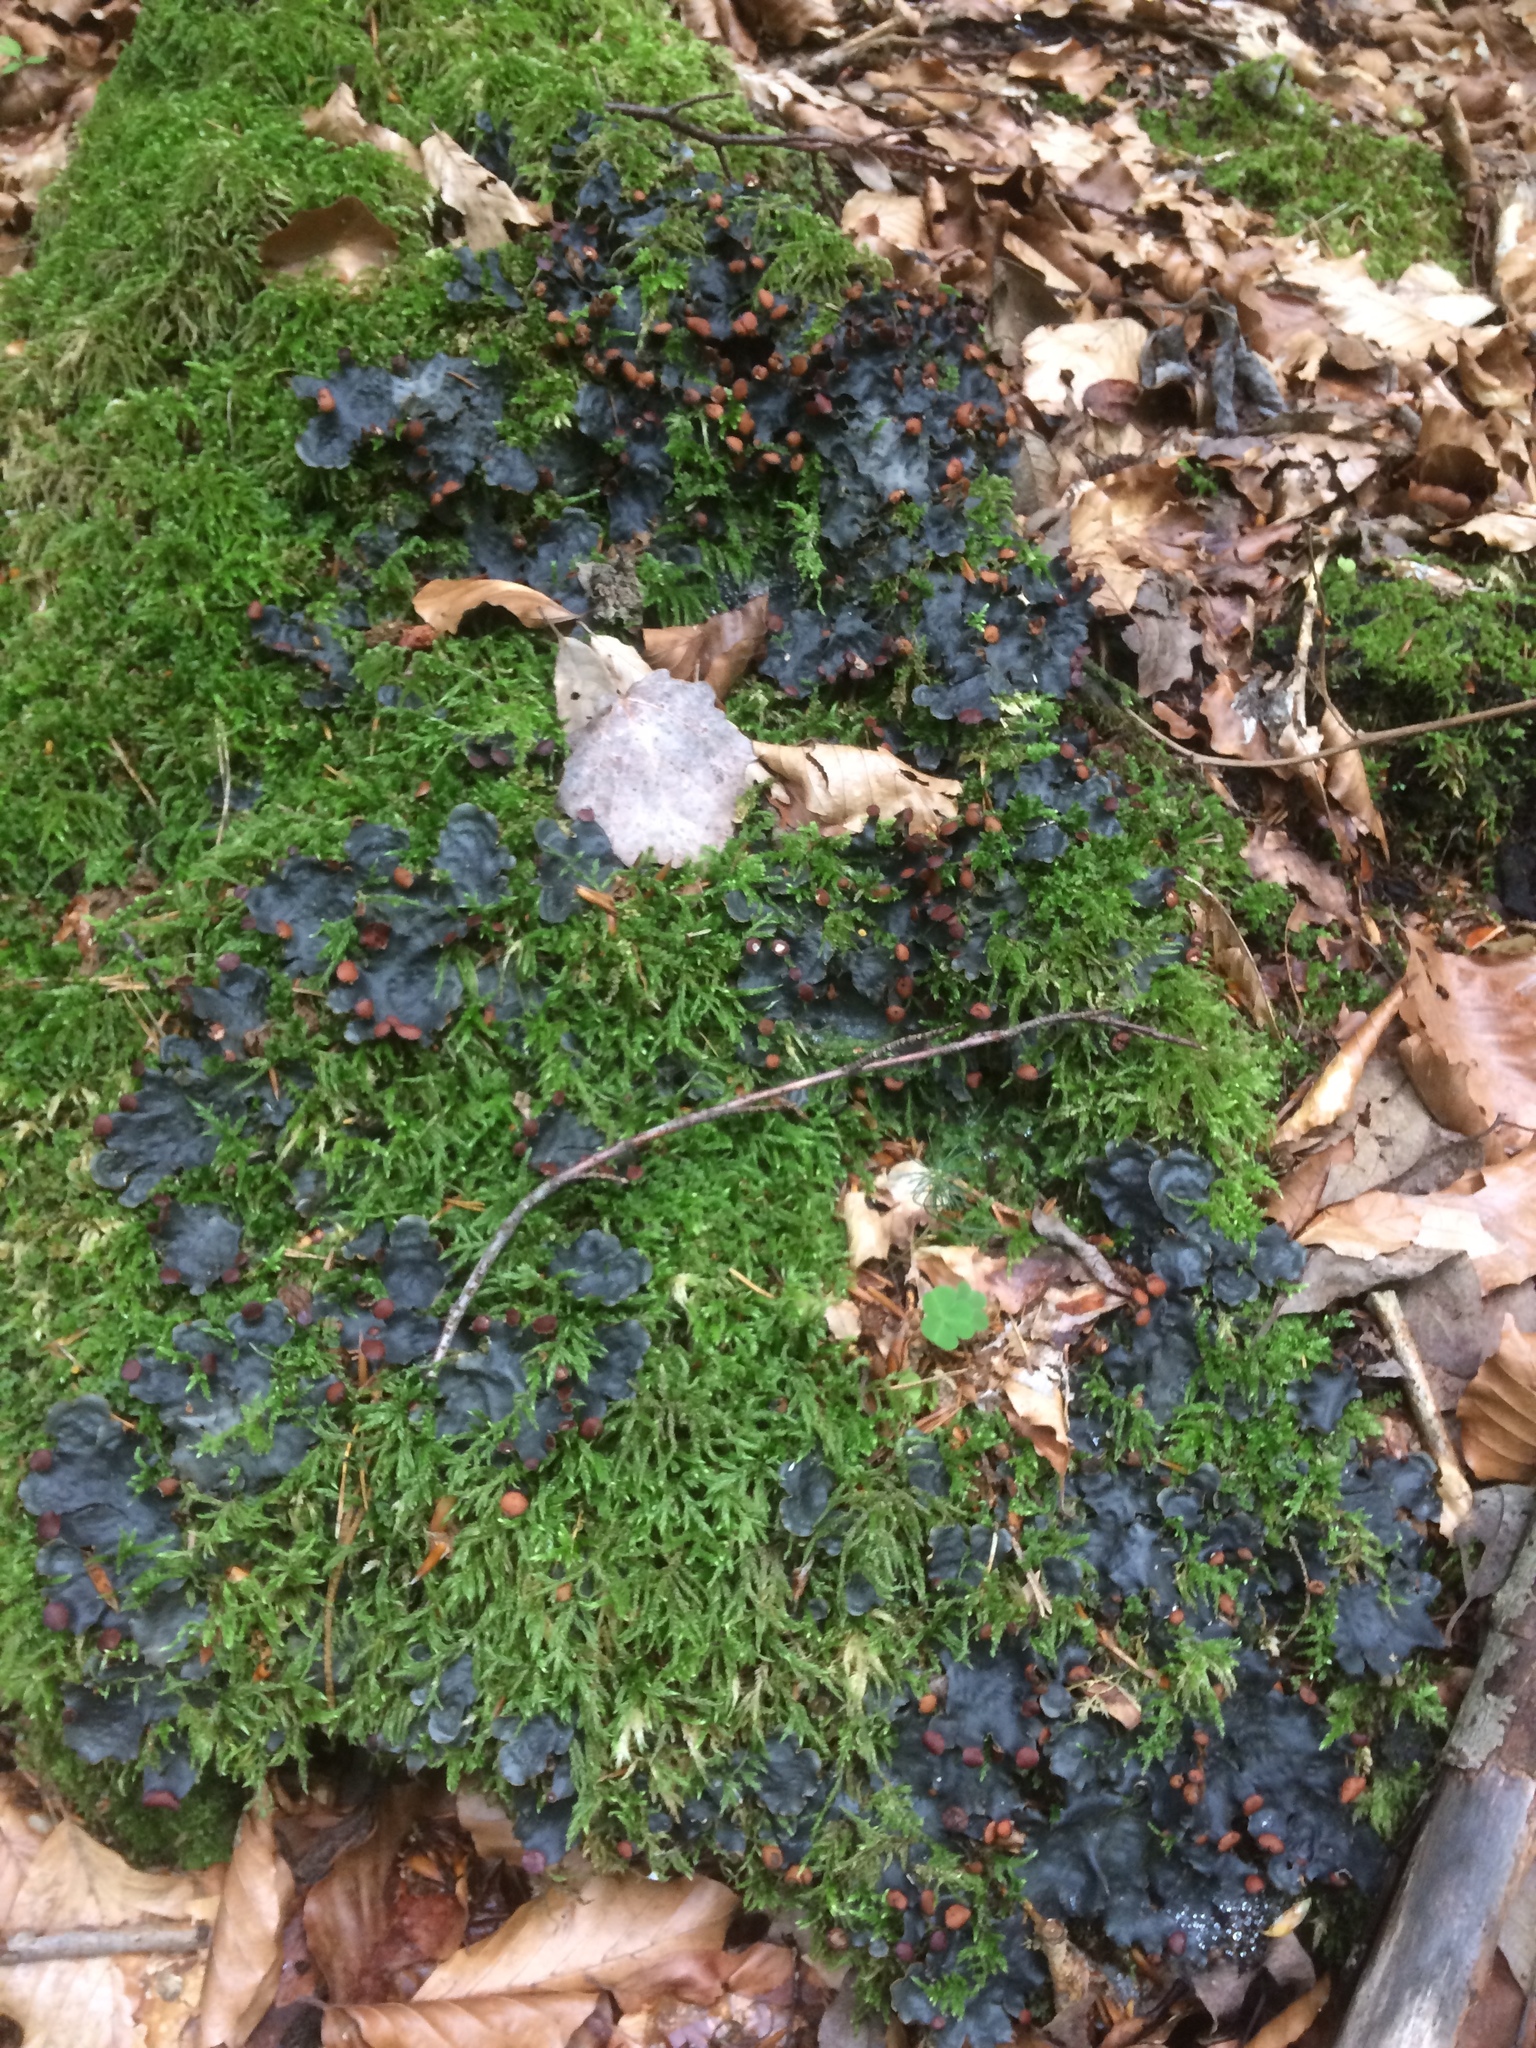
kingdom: Fungi
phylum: Ascomycota
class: Lecanoromycetes
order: Peltigerales
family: Peltigeraceae
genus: Peltigera
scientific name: Peltigera horizontalis
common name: Flat fruited pelt
